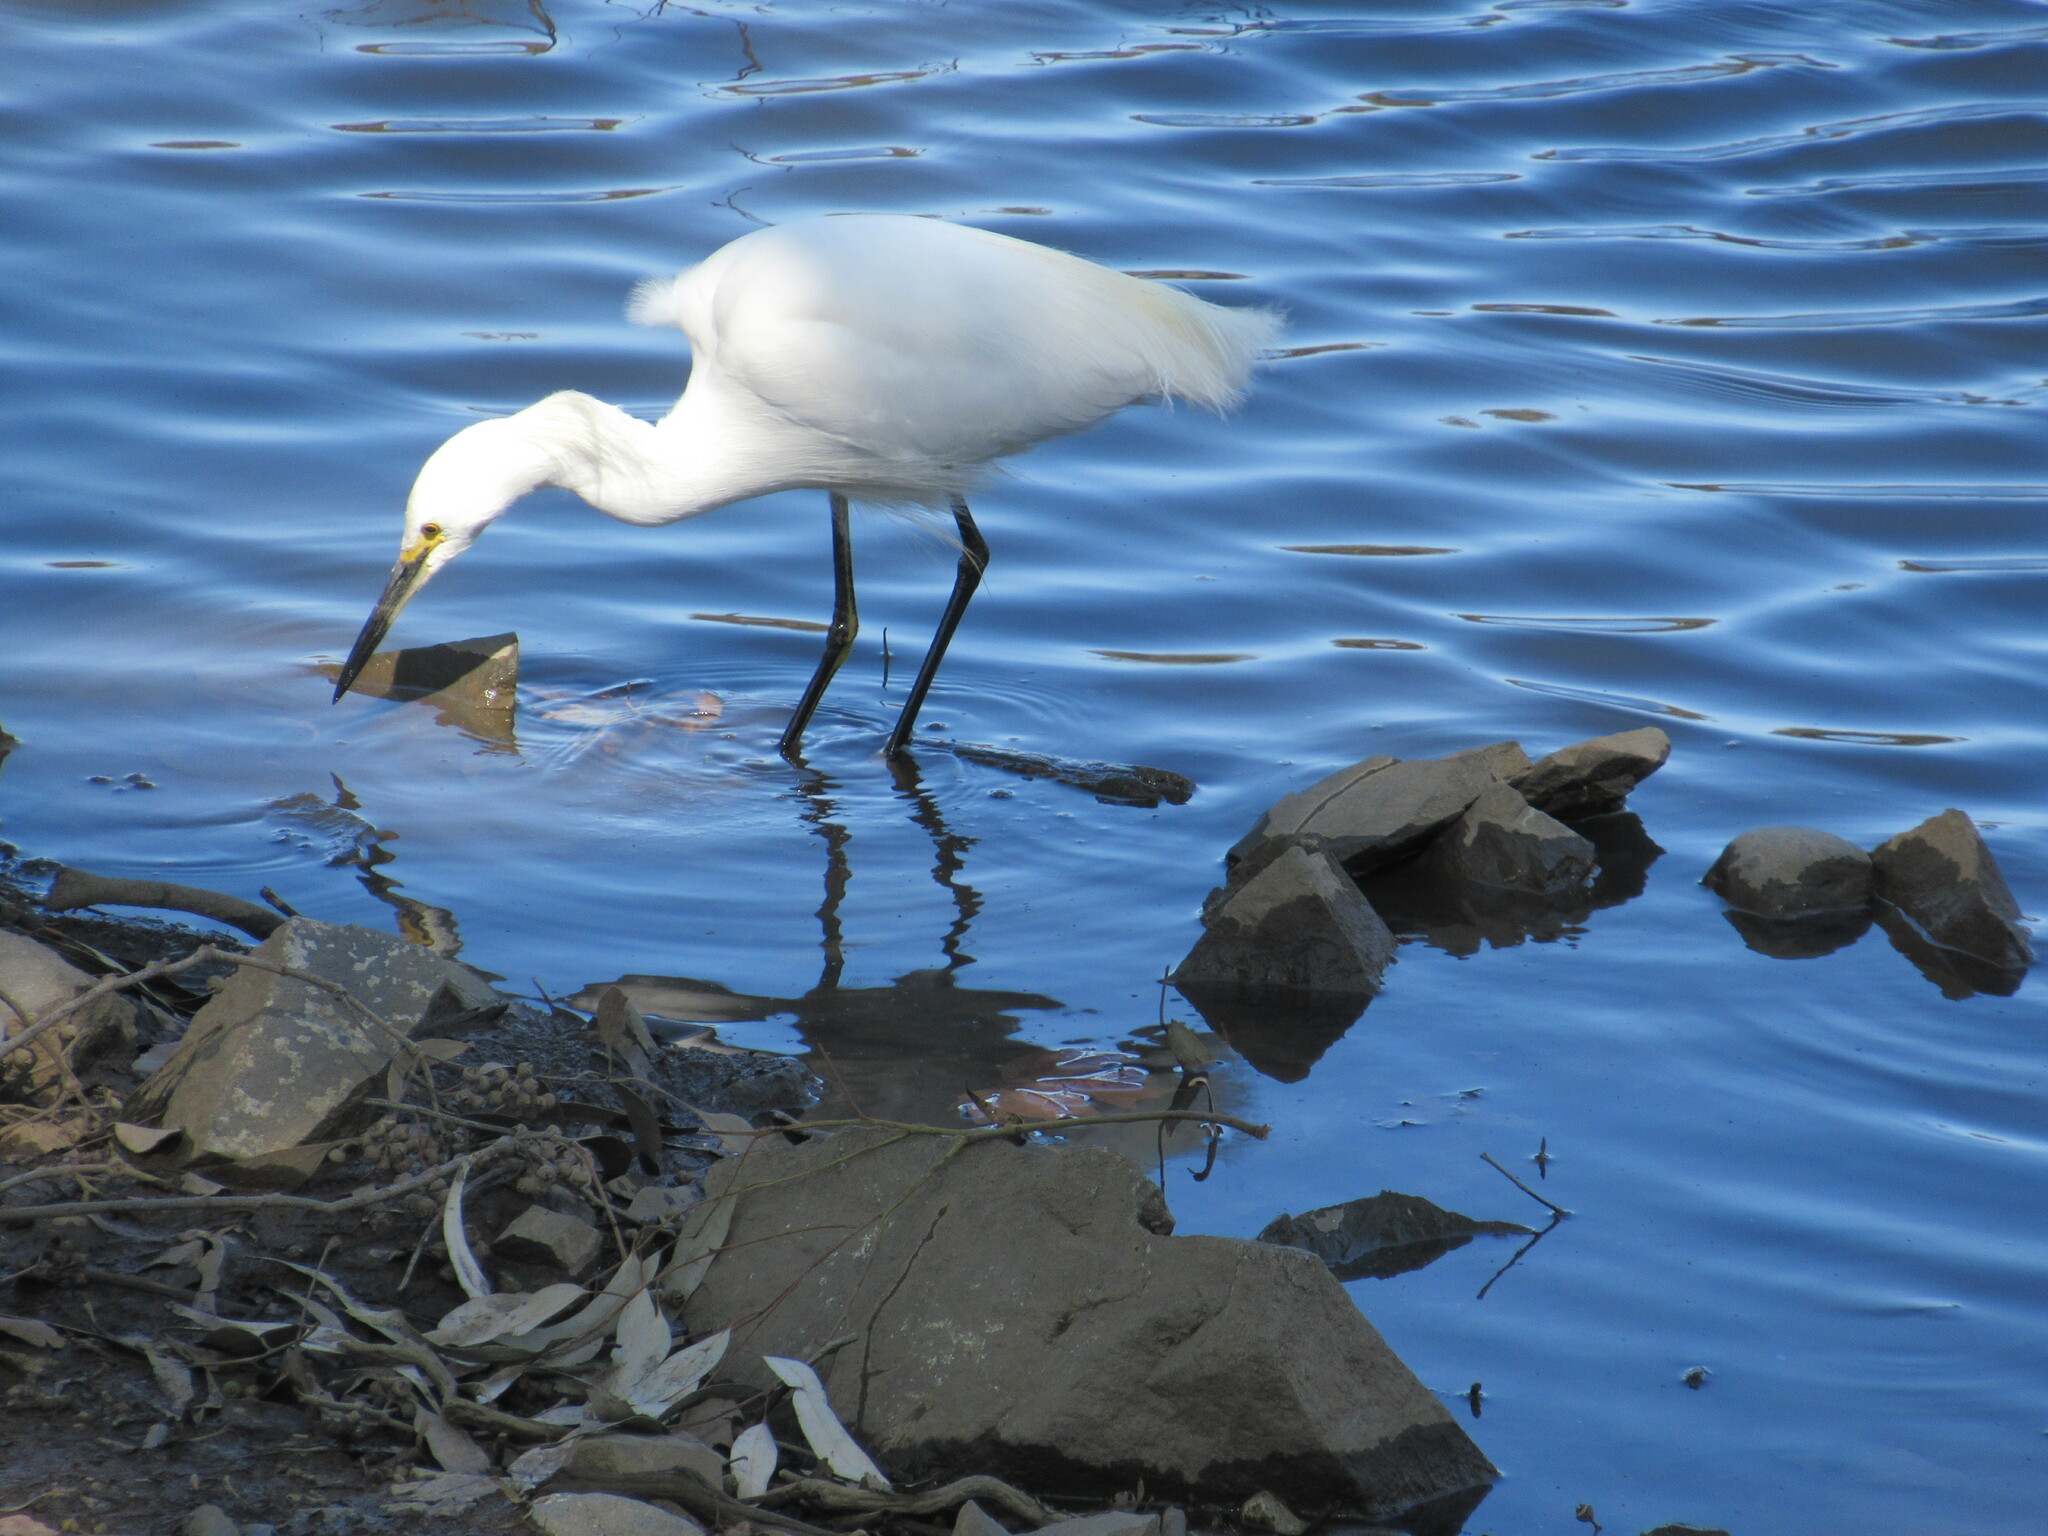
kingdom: Animalia
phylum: Chordata
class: Aves
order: Pelecaniformes
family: Ardeidae
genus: Egretta
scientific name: Egretta thula
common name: Snowy egret
